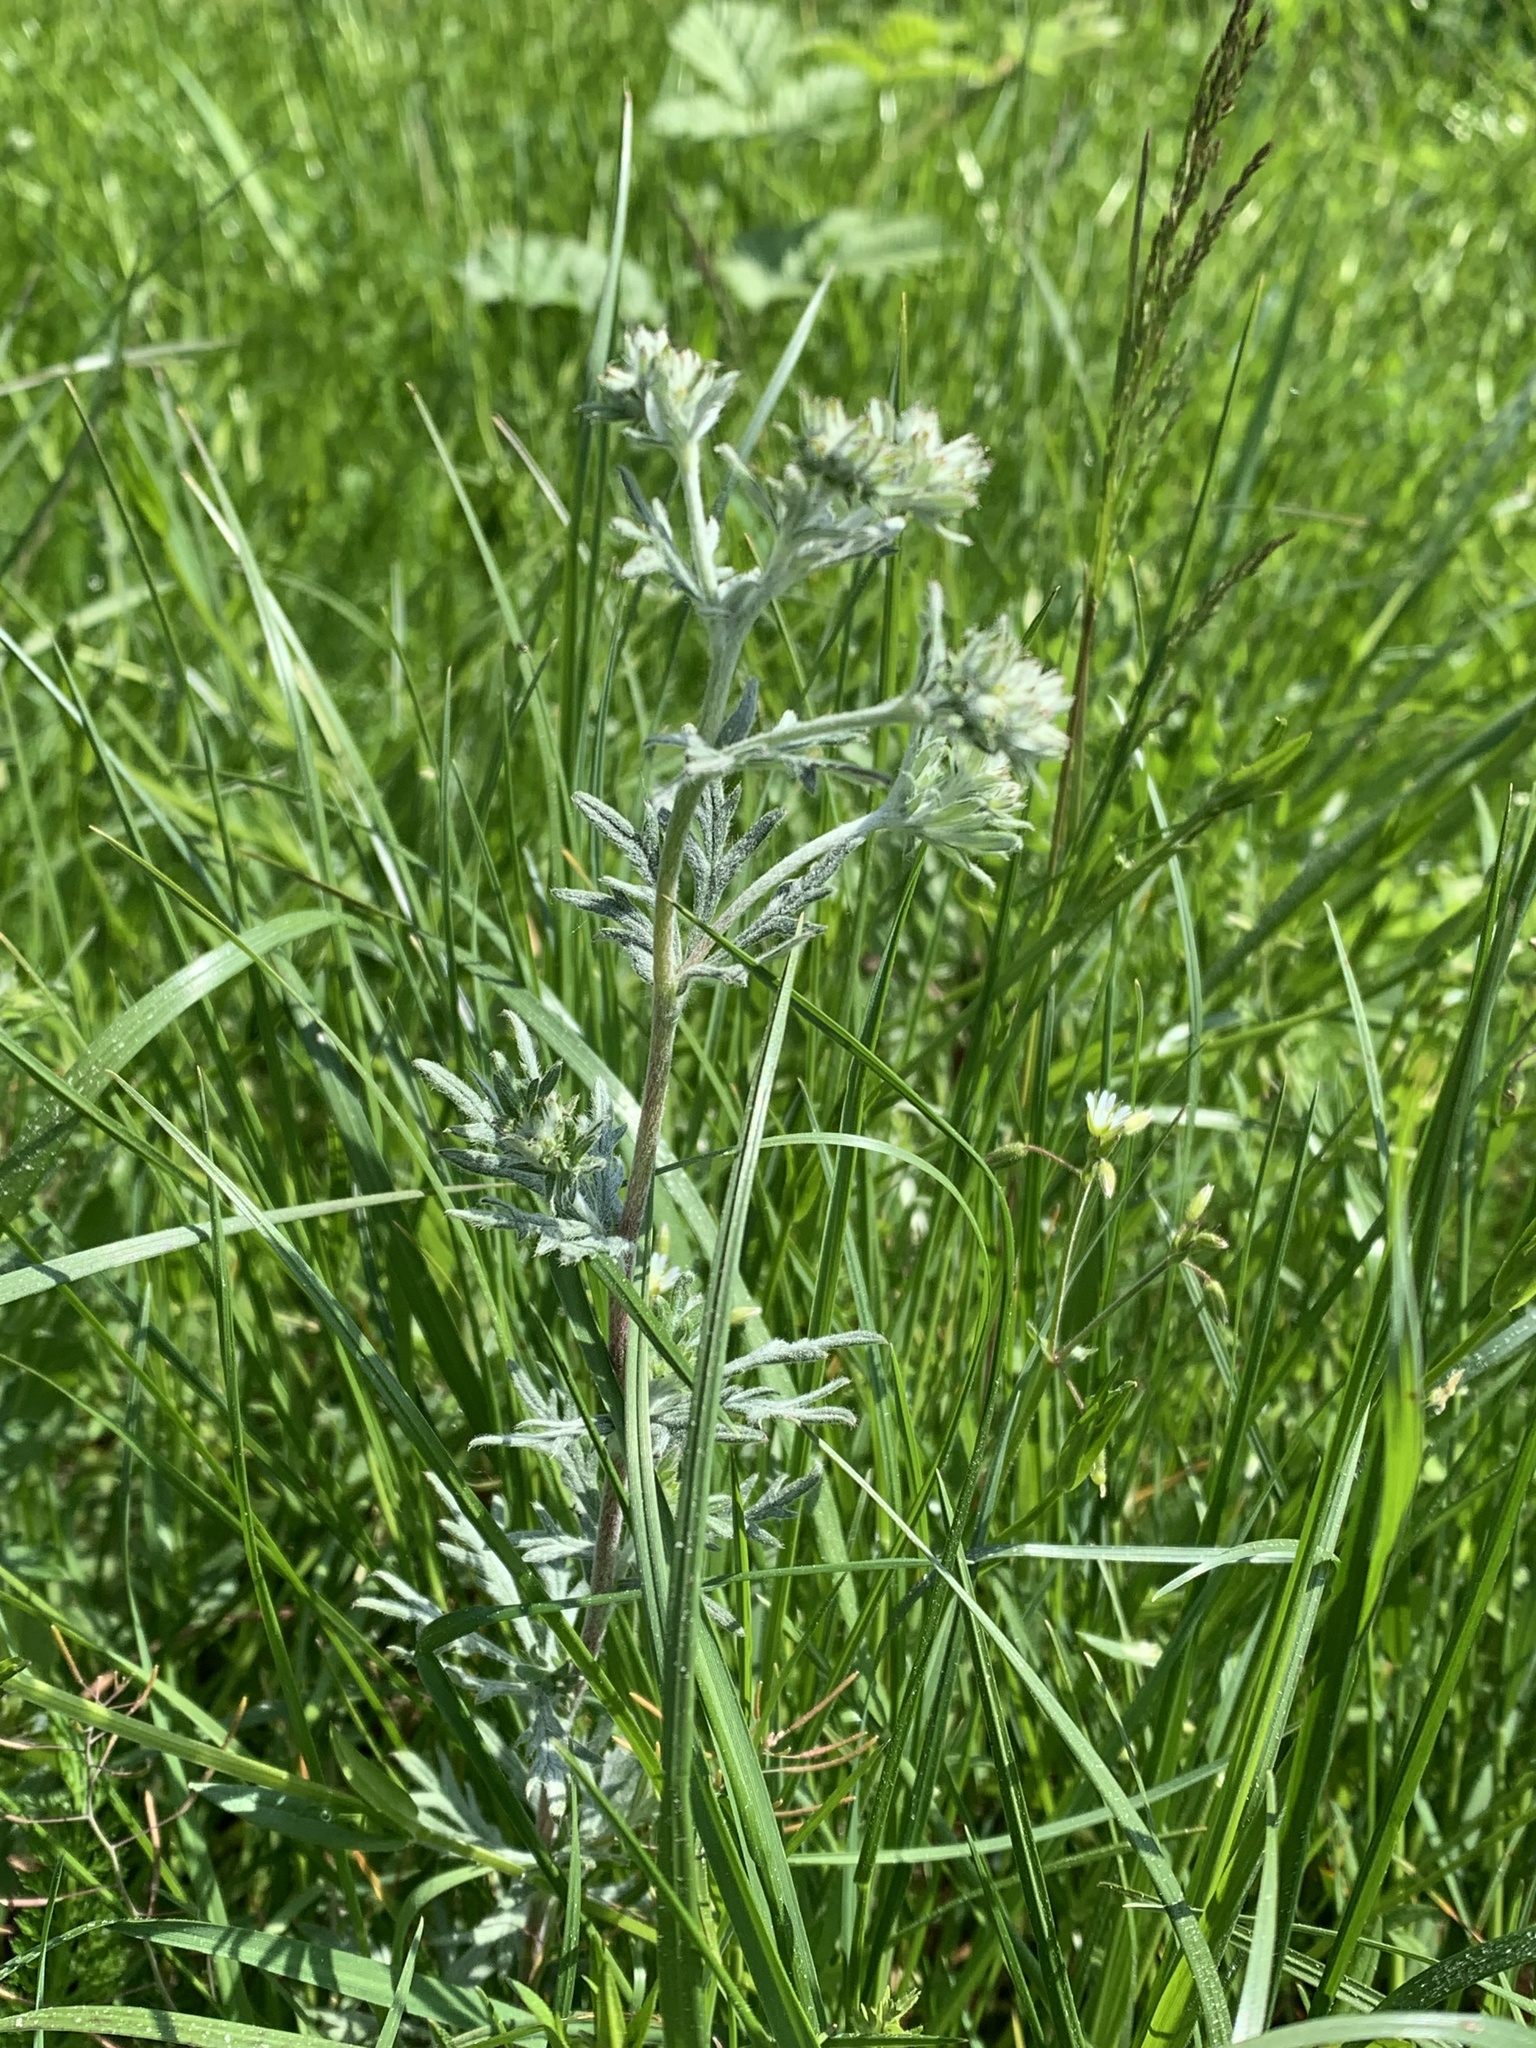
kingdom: Plantae
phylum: Tracheophyta
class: Magnoliopsida
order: Rosales
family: Rosaceae
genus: Potentilla
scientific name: Potentilla argentea
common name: Hoary cinquefoil
